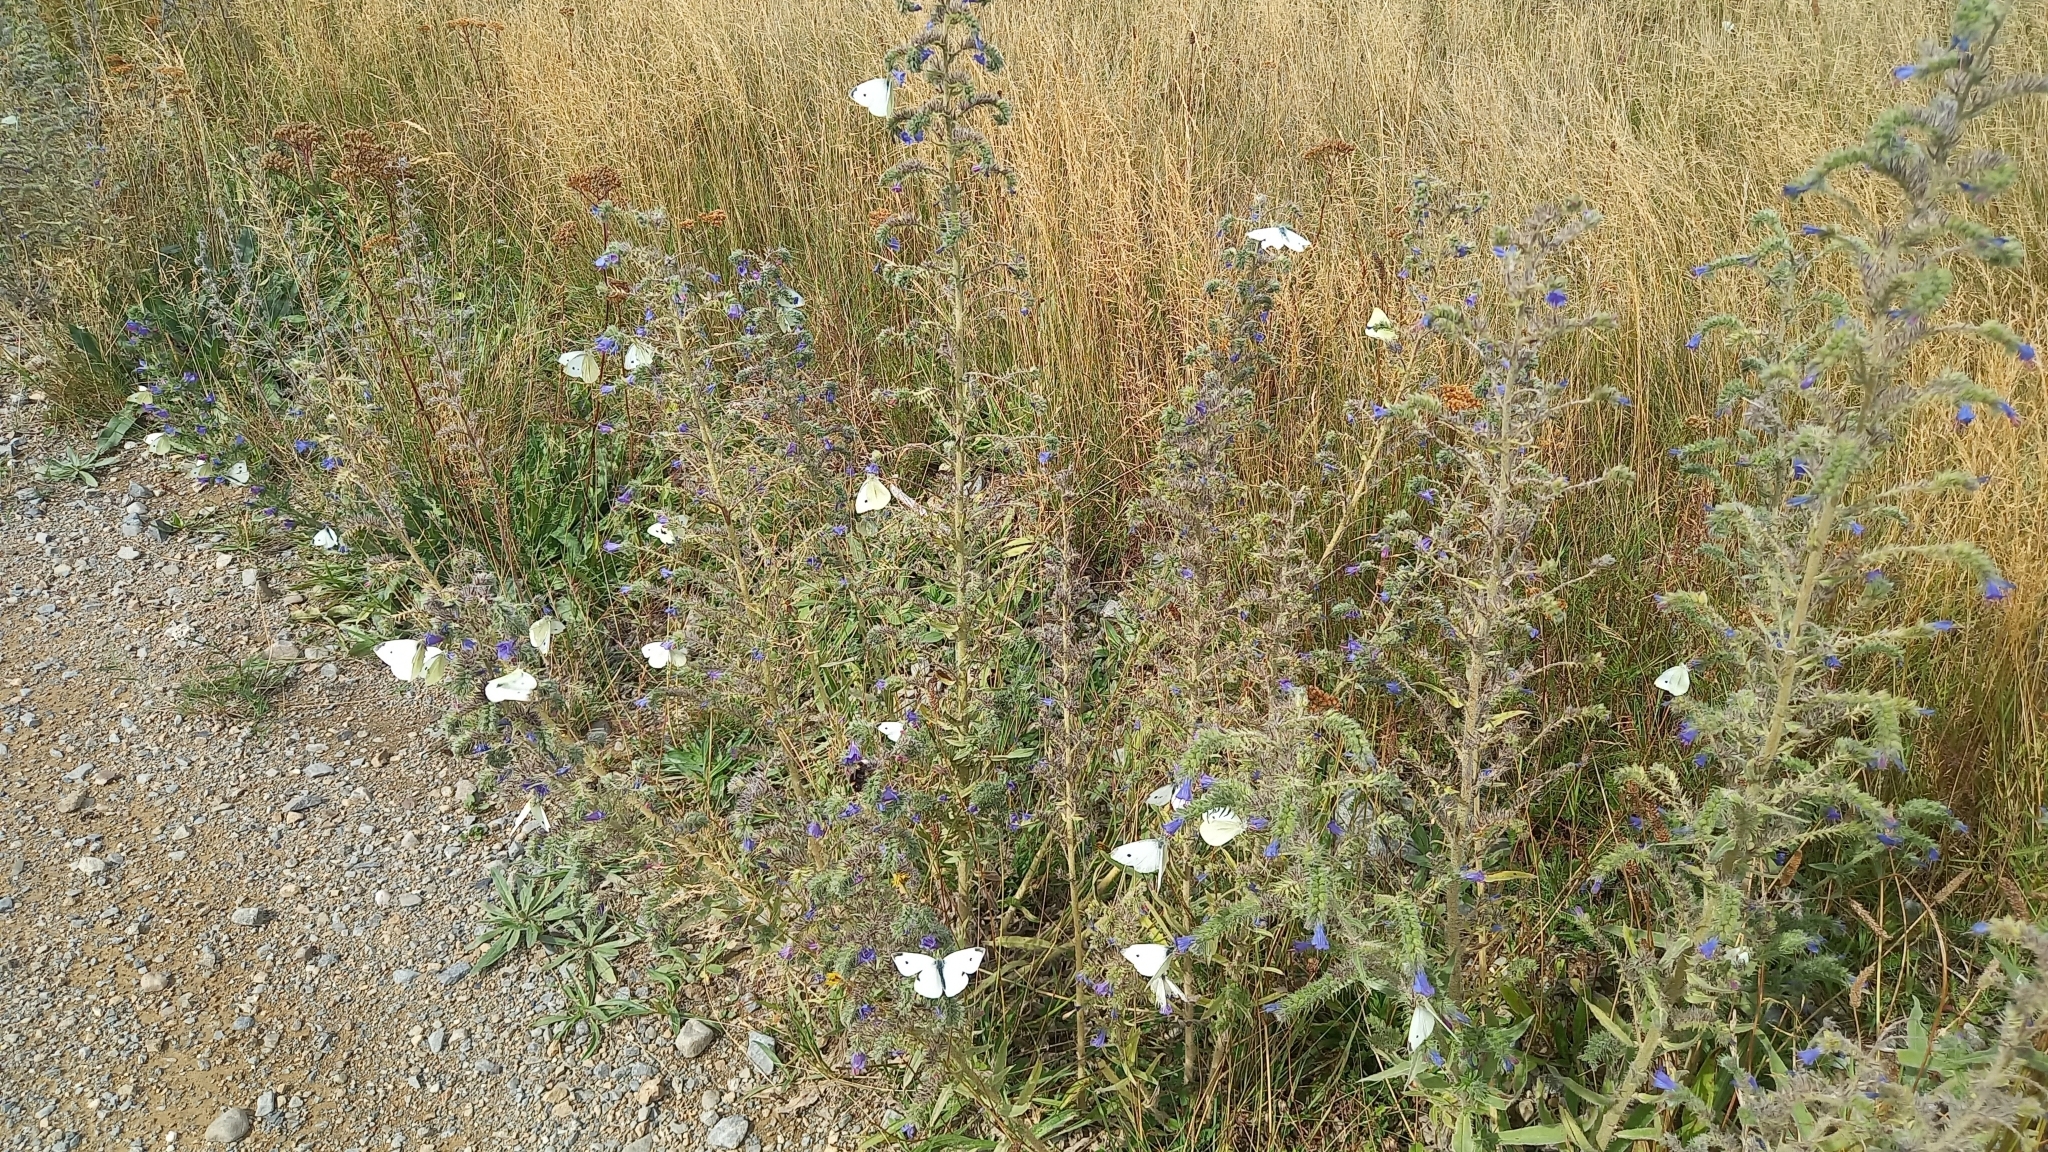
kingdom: Animalia
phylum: Arthropoda
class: Insecta
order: Lepidoptera
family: Pieridae
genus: Pieris
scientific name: Pieris rapae
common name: Small white
